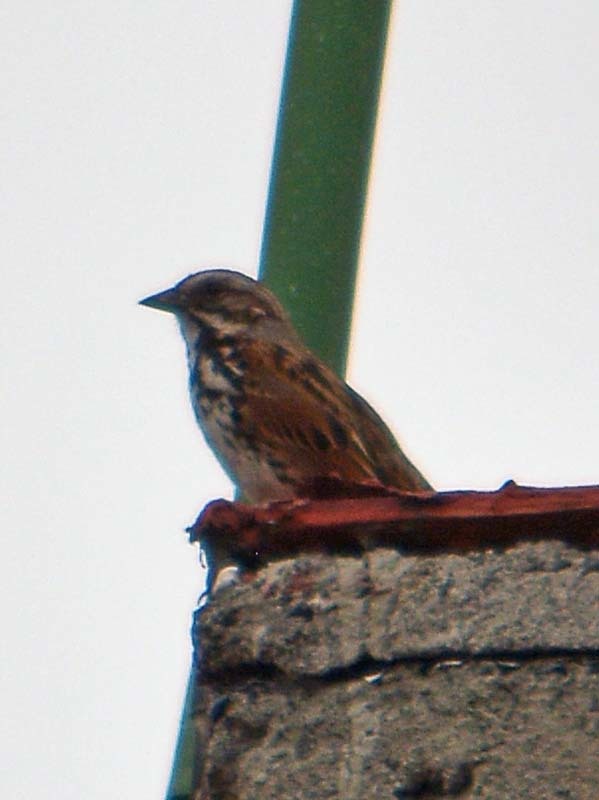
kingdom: Animalia
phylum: Chordata
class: Aves
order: Passeriformes
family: Passerellidae
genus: Melospiza
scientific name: Melospiza melodia
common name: Song sparrow
